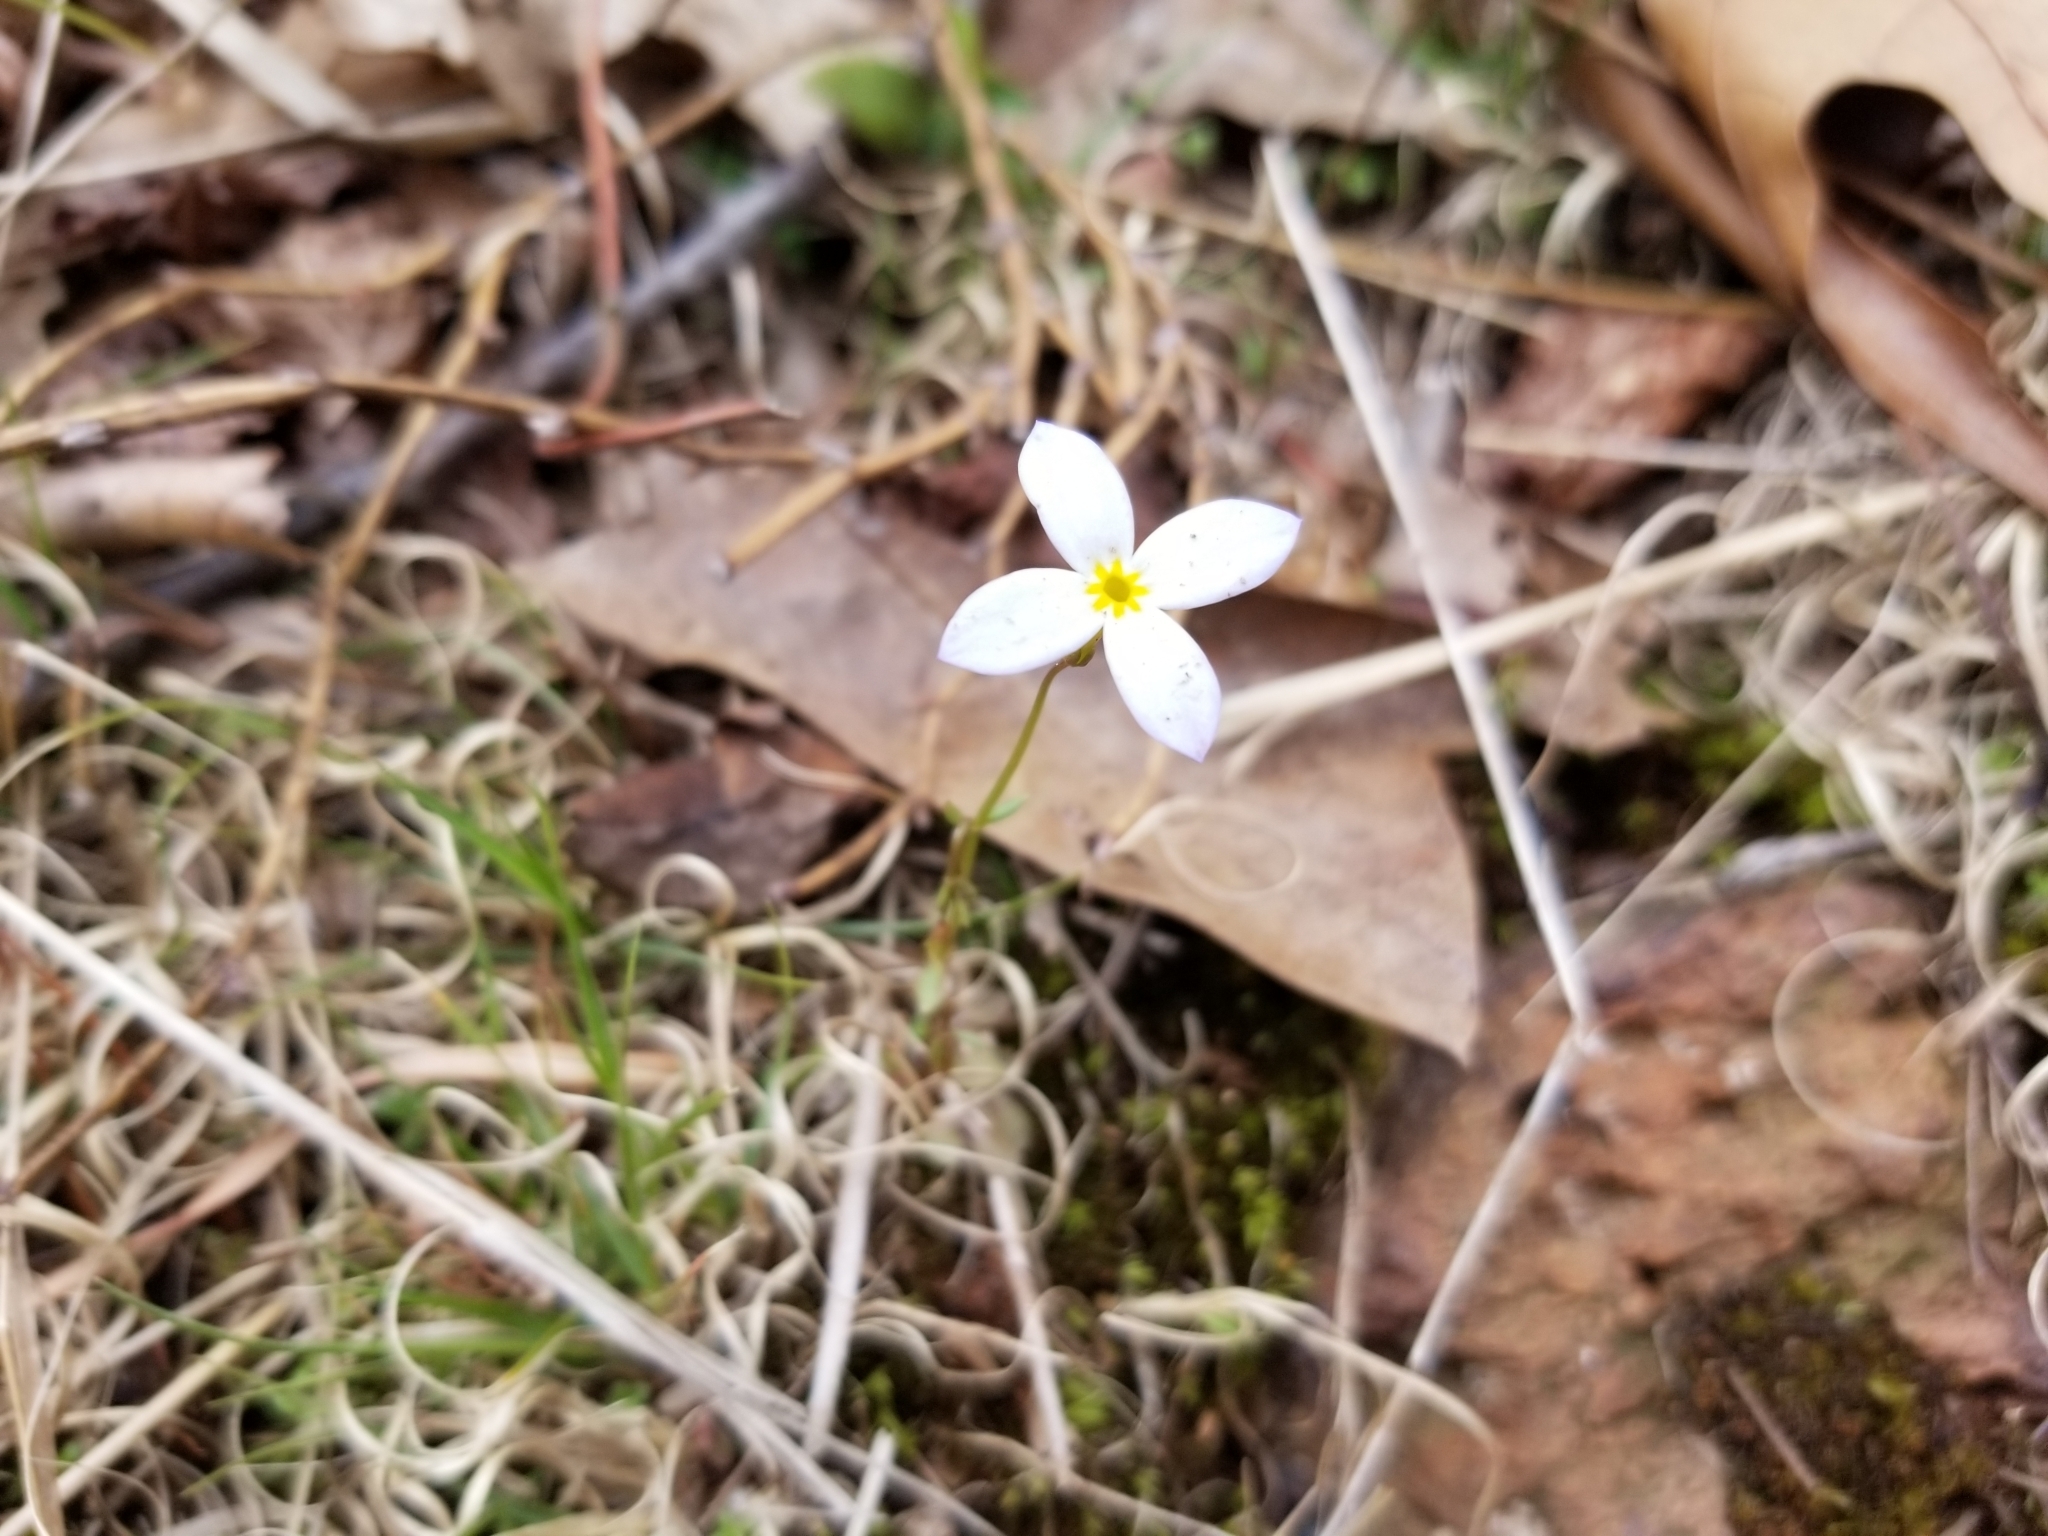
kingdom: Plantae
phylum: Tracheophyta
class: Magnoliopsida
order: Gentianales
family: Rubiaceae
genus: Houstonia
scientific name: Houstonia caerulea
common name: Bluets
